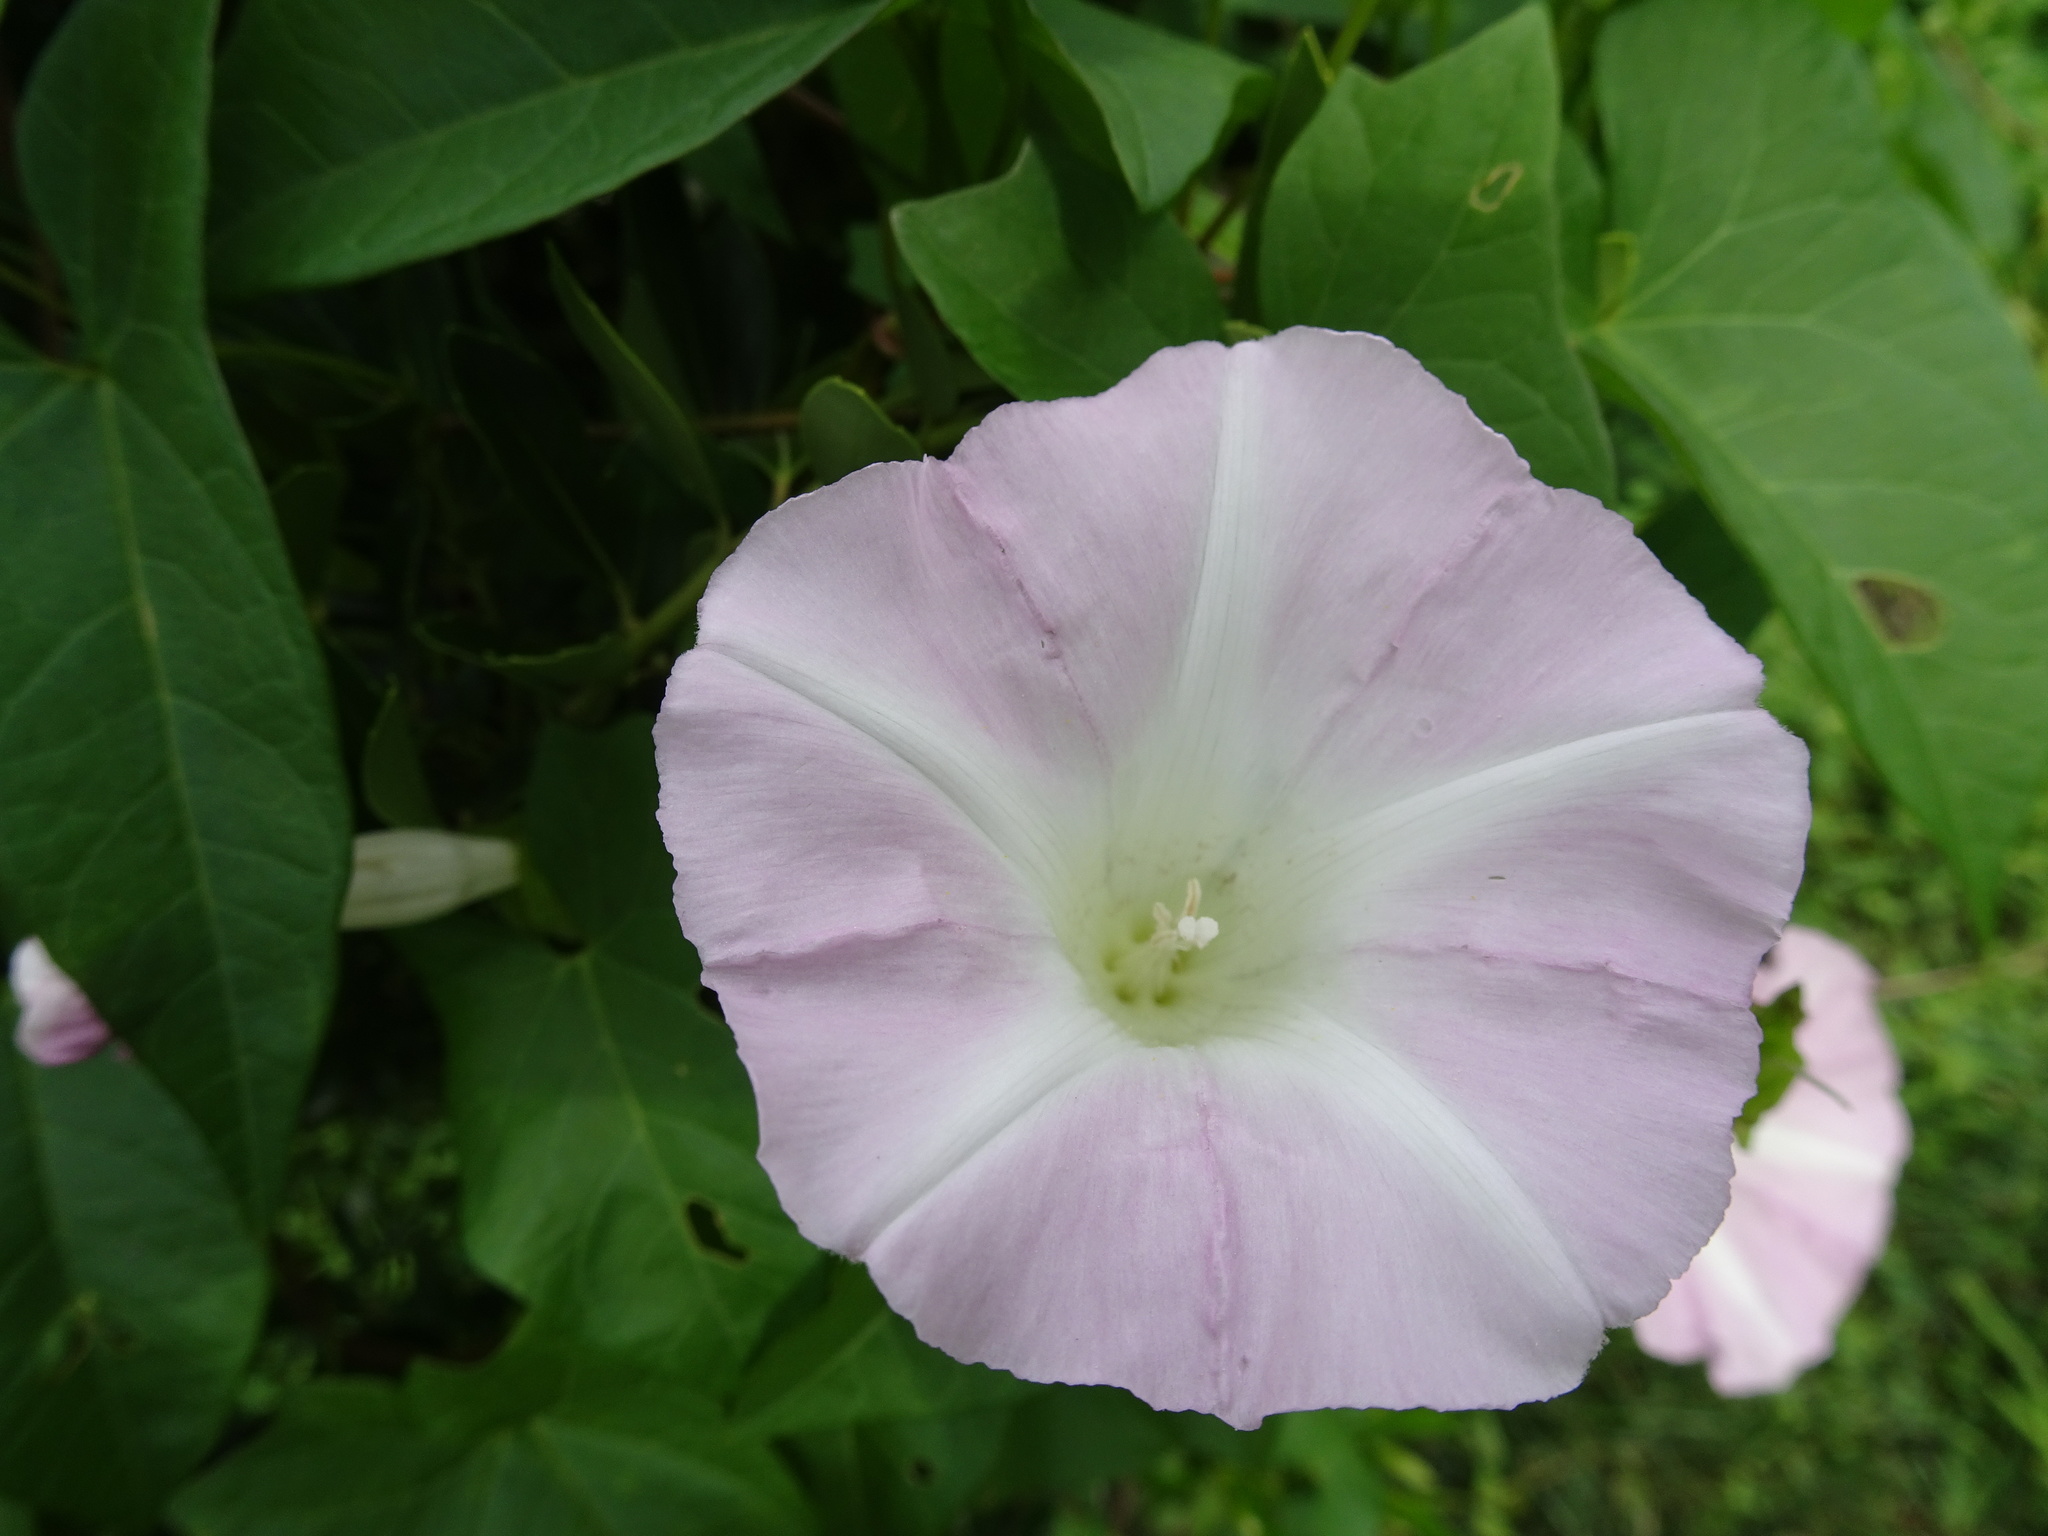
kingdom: Plantae
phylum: Tracheophyta
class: Magnoliopsida
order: Solanales
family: Convolvulaceae
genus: Calystegia
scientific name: Calystegia sepium
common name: Hedge bindweed
